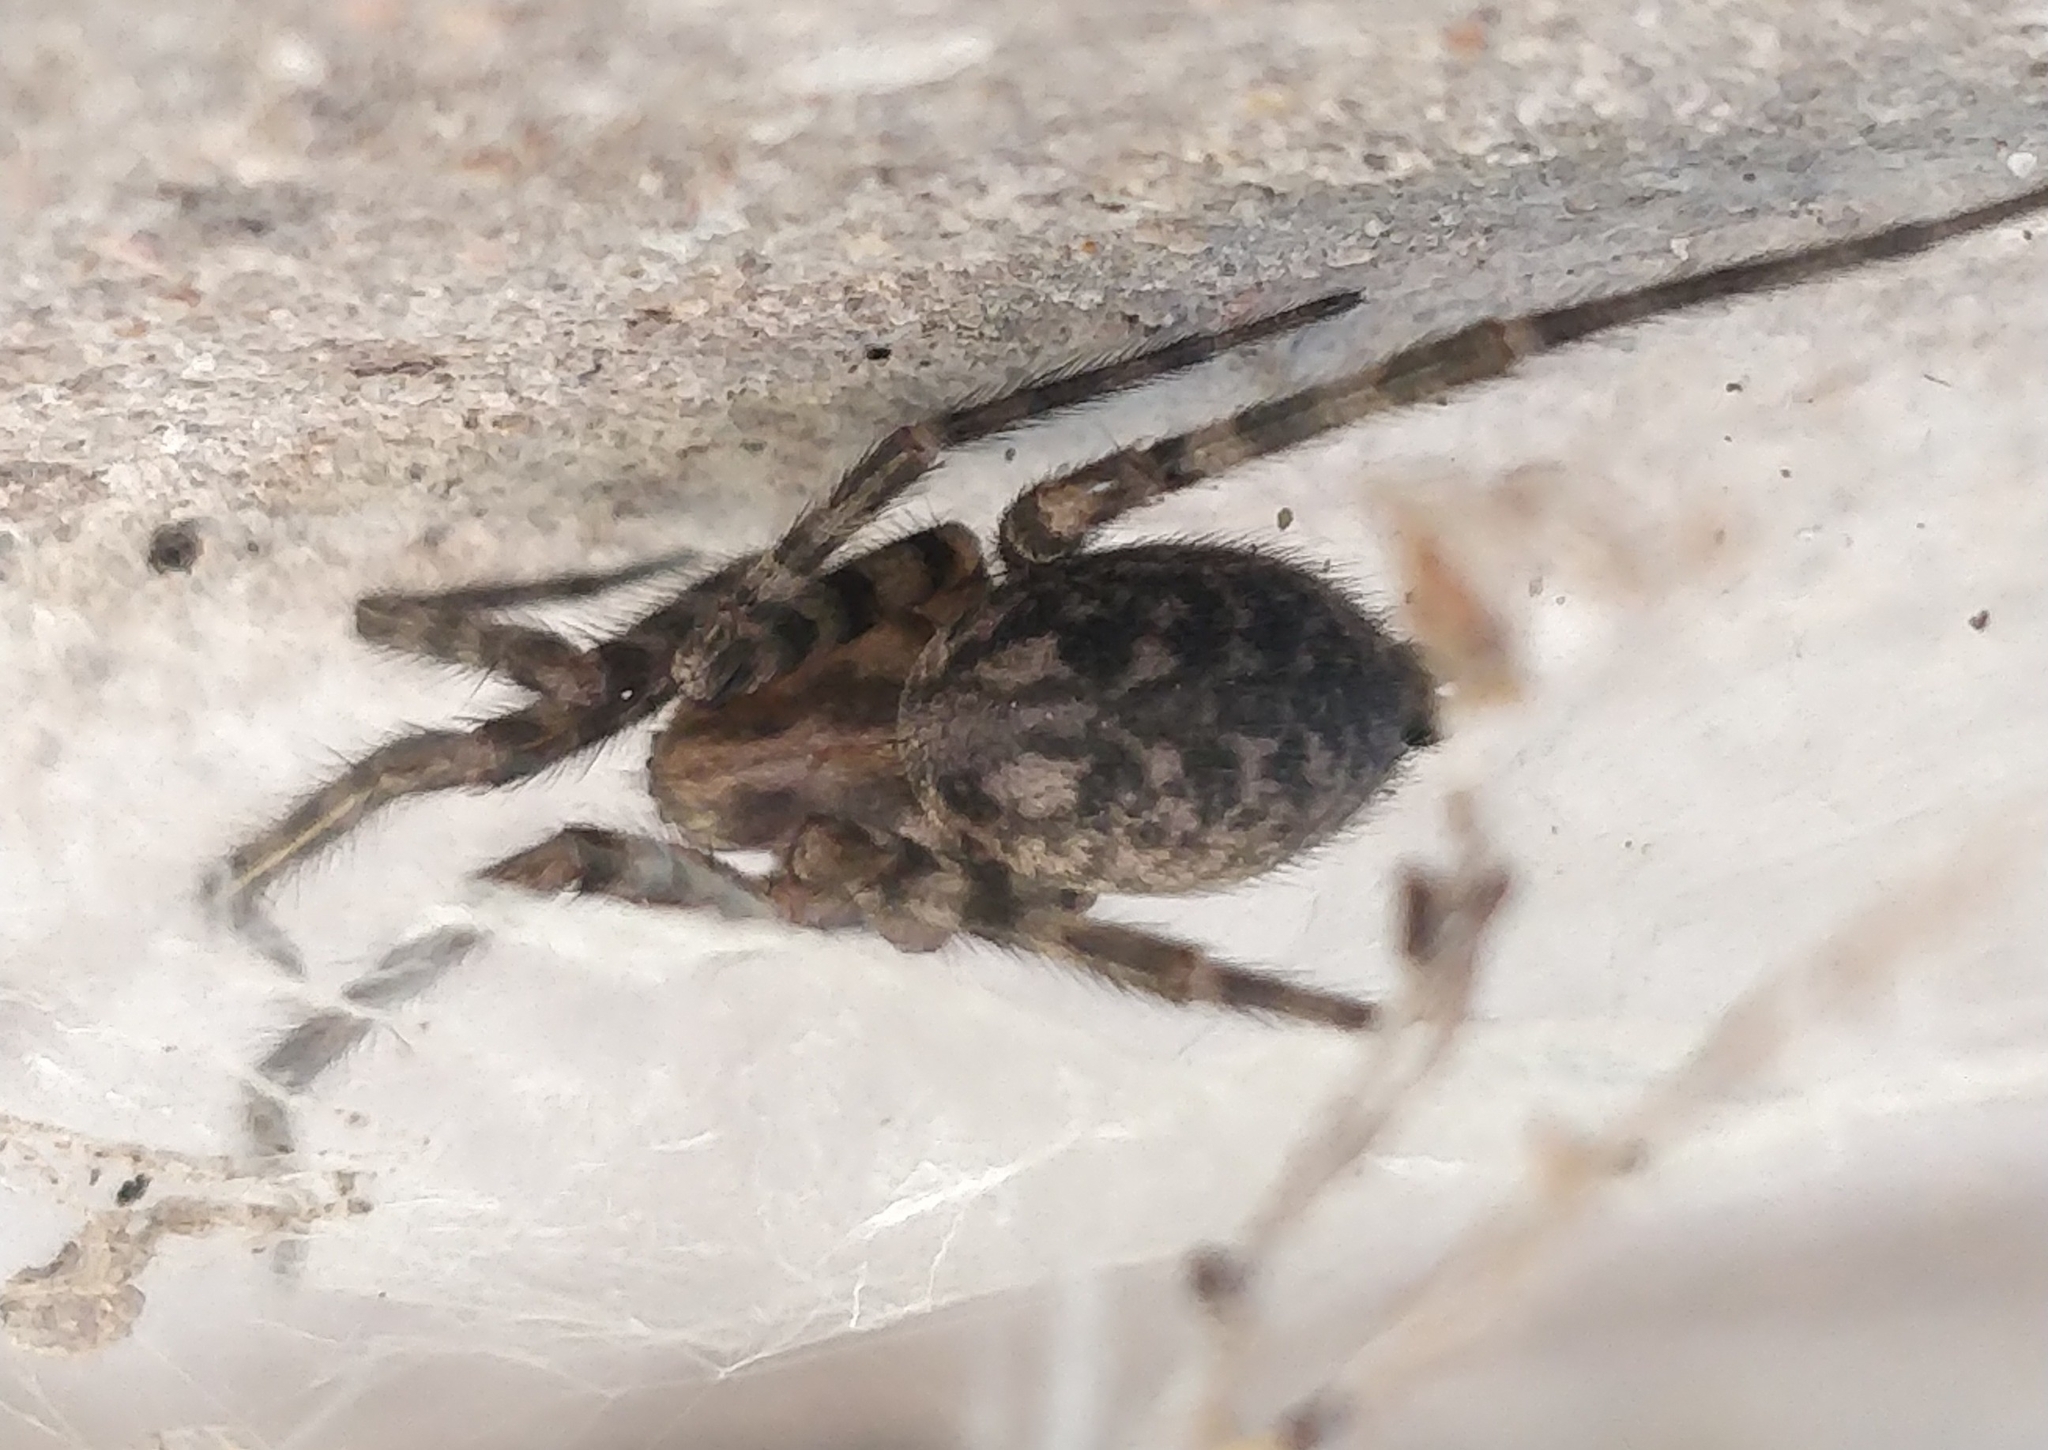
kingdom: Animalia
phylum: Arthropoda
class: Arachnida
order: Araneae
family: Agelenidae
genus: Tegenaria
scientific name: Tegenaria domestica
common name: Barn funnel weaver
